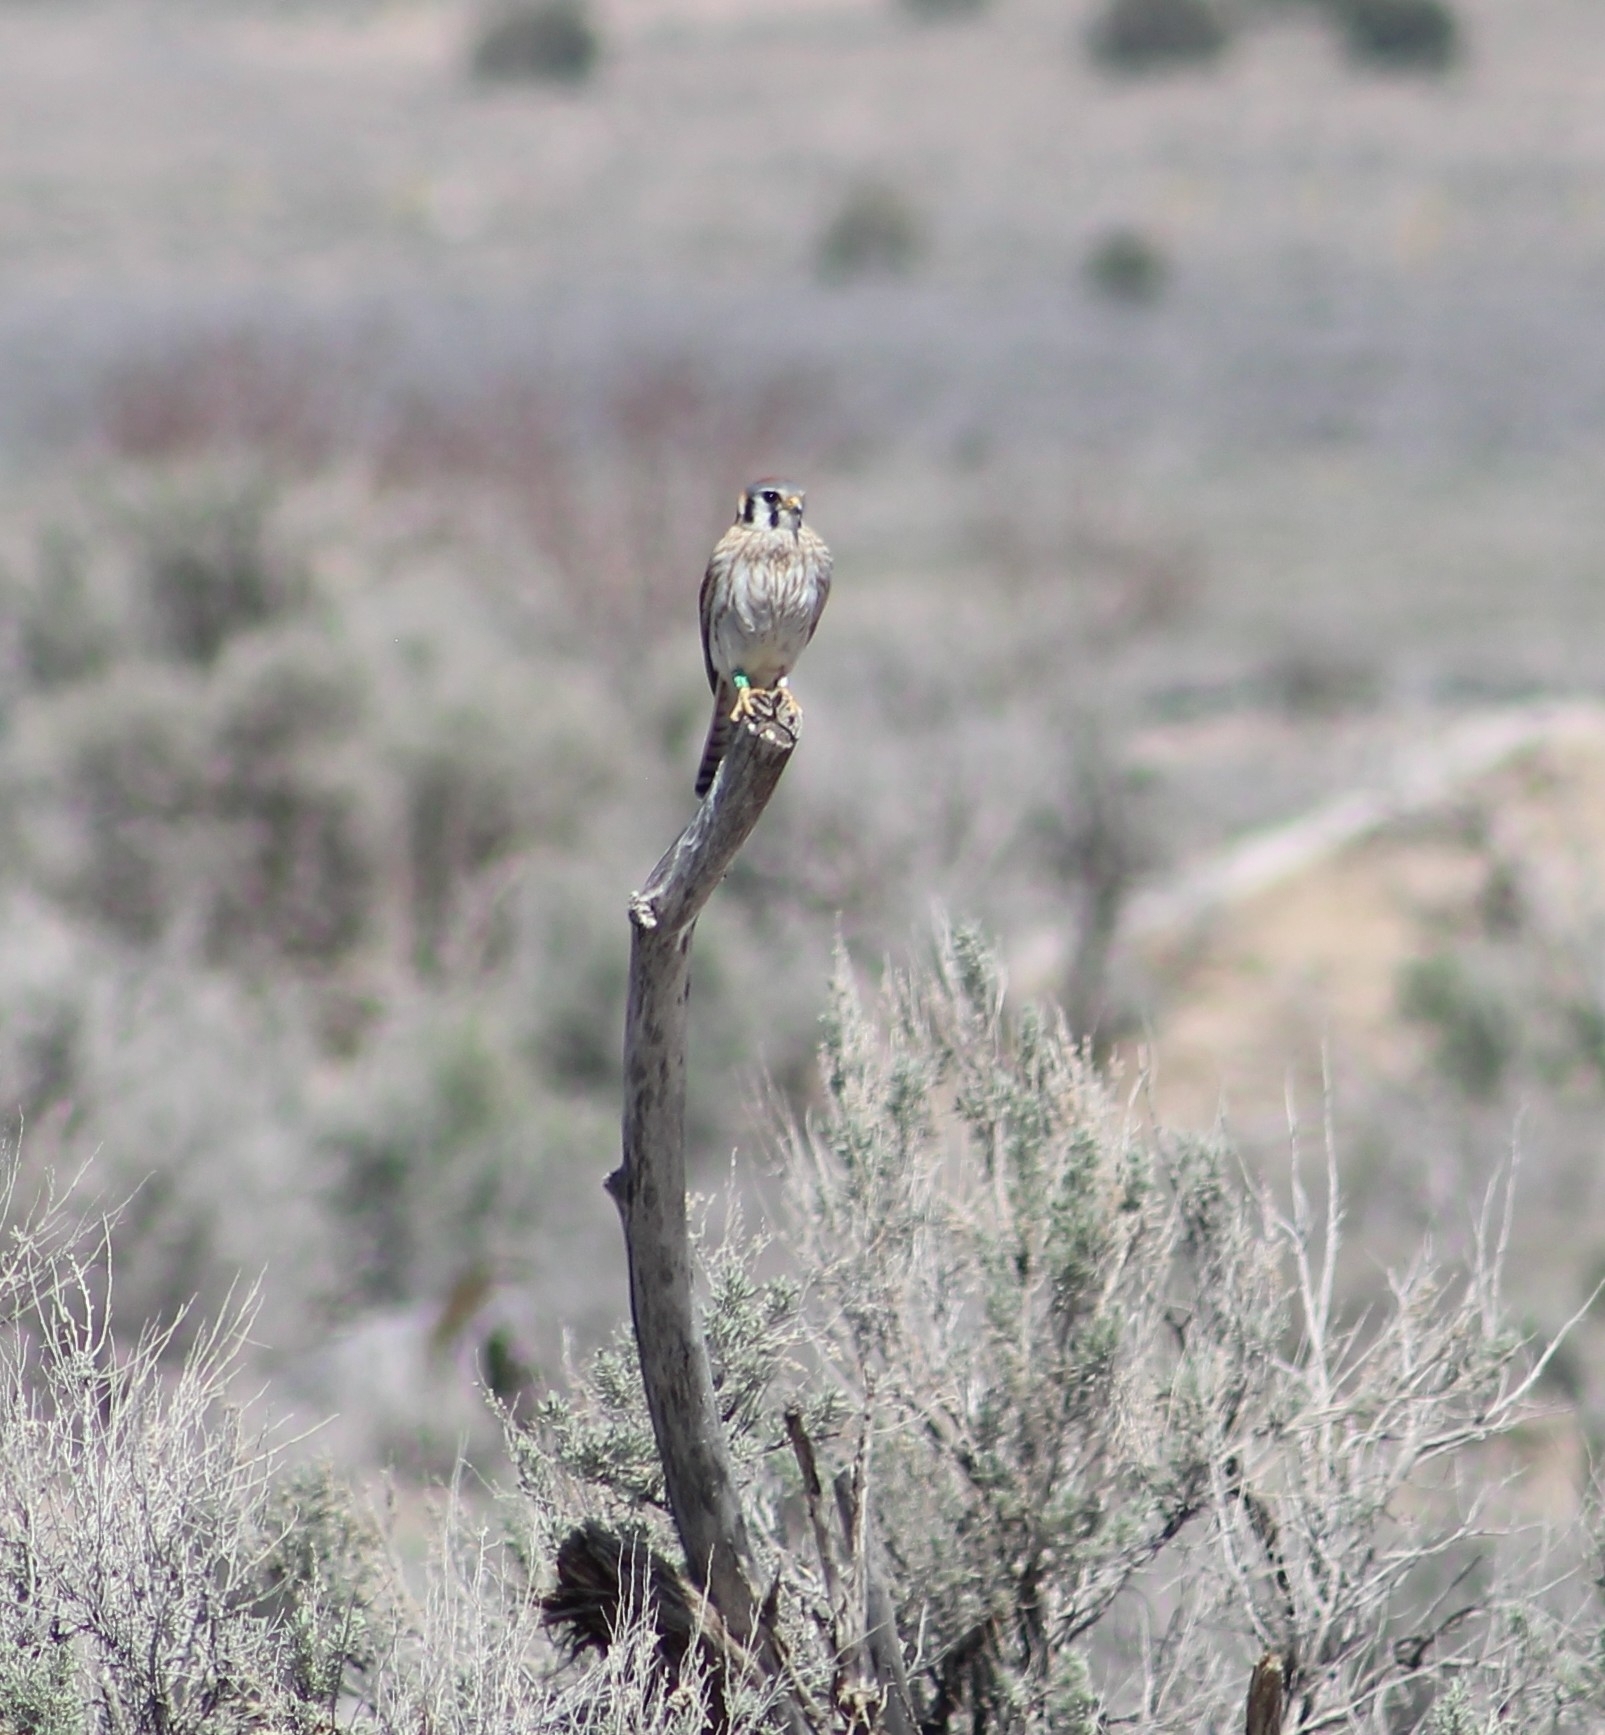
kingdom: Animalia
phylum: Chordata
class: Aves
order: Falconiformes
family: Falconidae
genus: Falco
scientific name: Falco sparverius
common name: American kestrel
